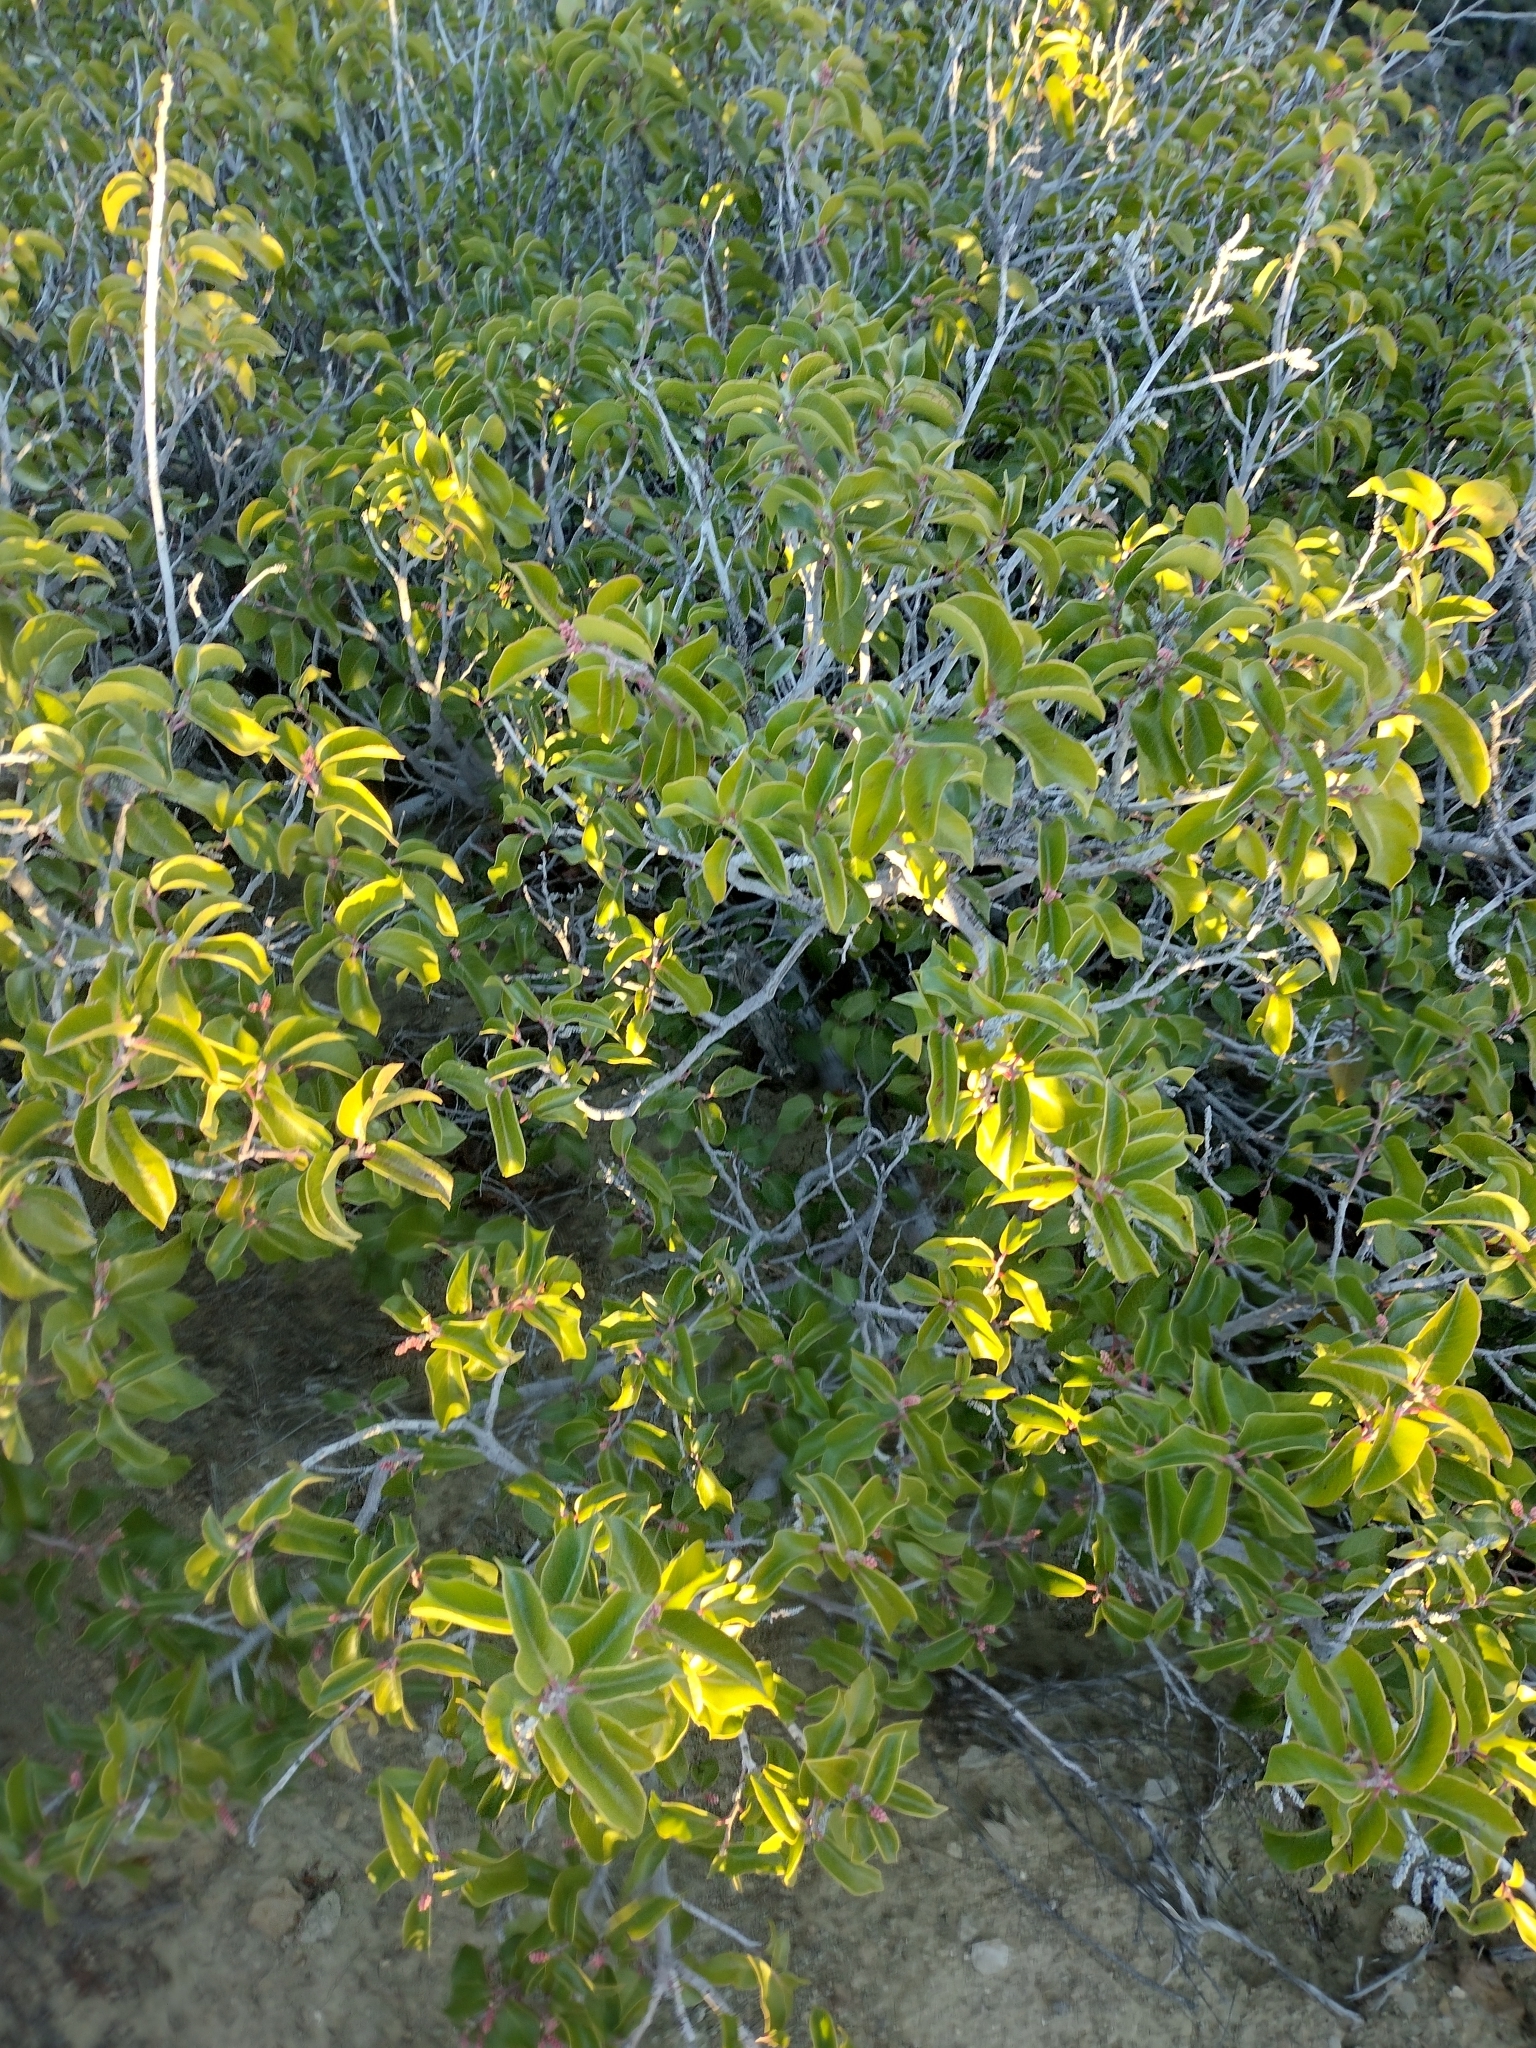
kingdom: Plantae
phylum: Tracheophyta
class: Magnoliopsida
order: Sapindales
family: Anacardiaceae
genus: Rhus
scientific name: Rhus ovata
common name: Sugar sumac
